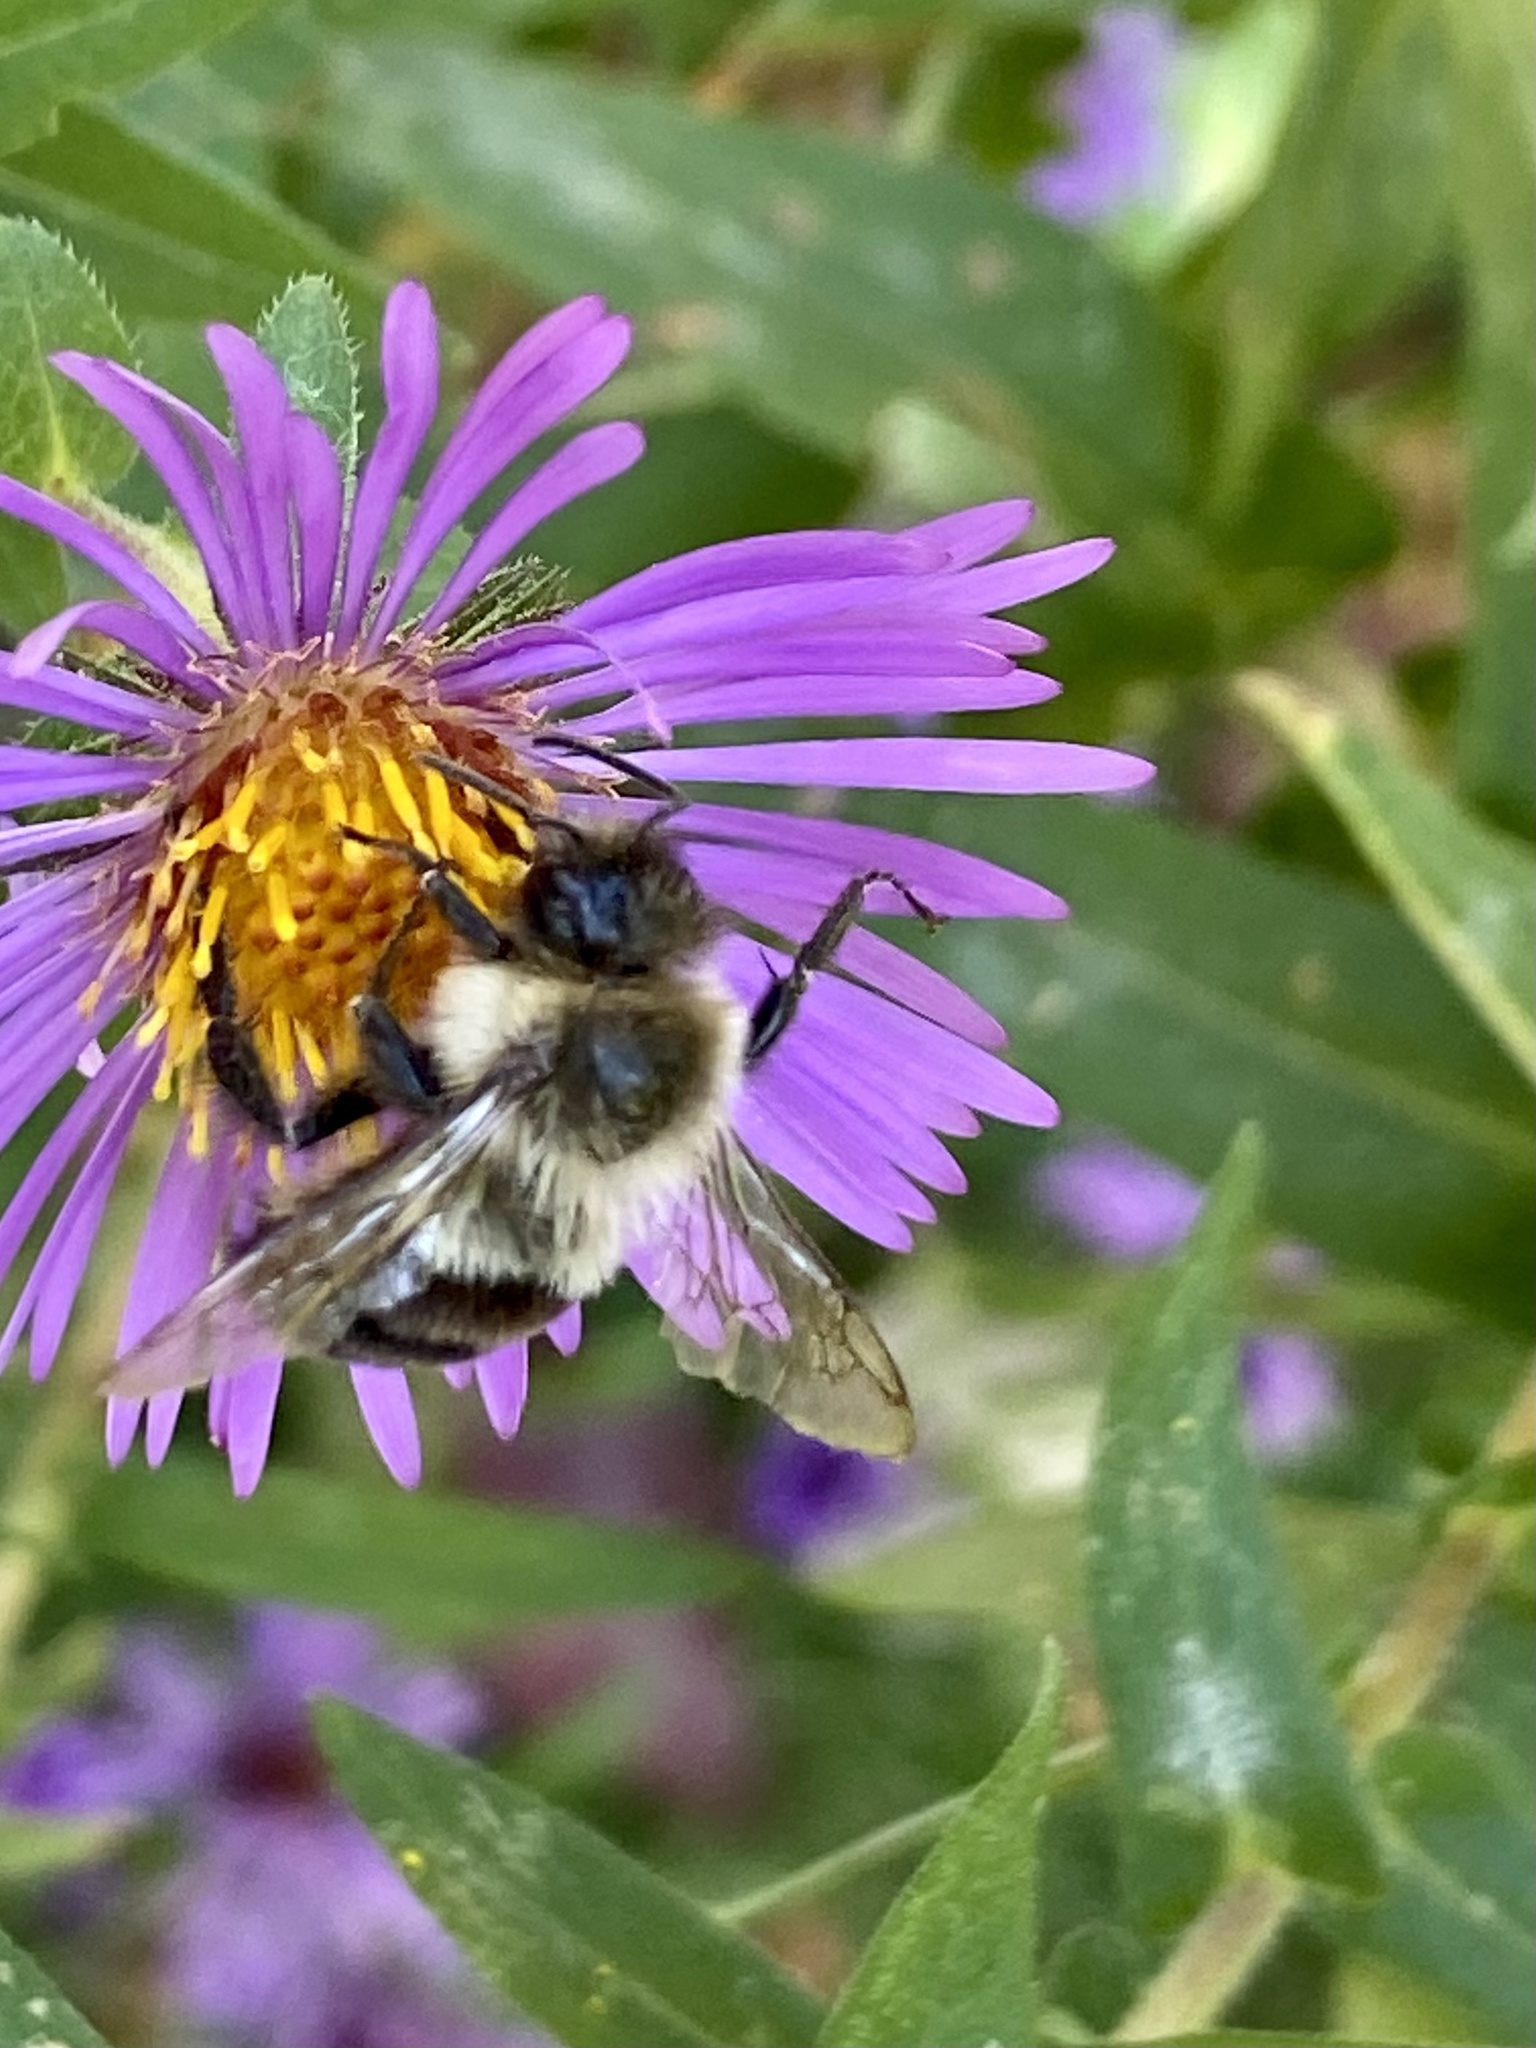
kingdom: Animalia
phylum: Arthropoda
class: Insecta
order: Hymenoptera
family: Apidae
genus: Bombus
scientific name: Bombus impatiens
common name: Common eastern bumble bee
